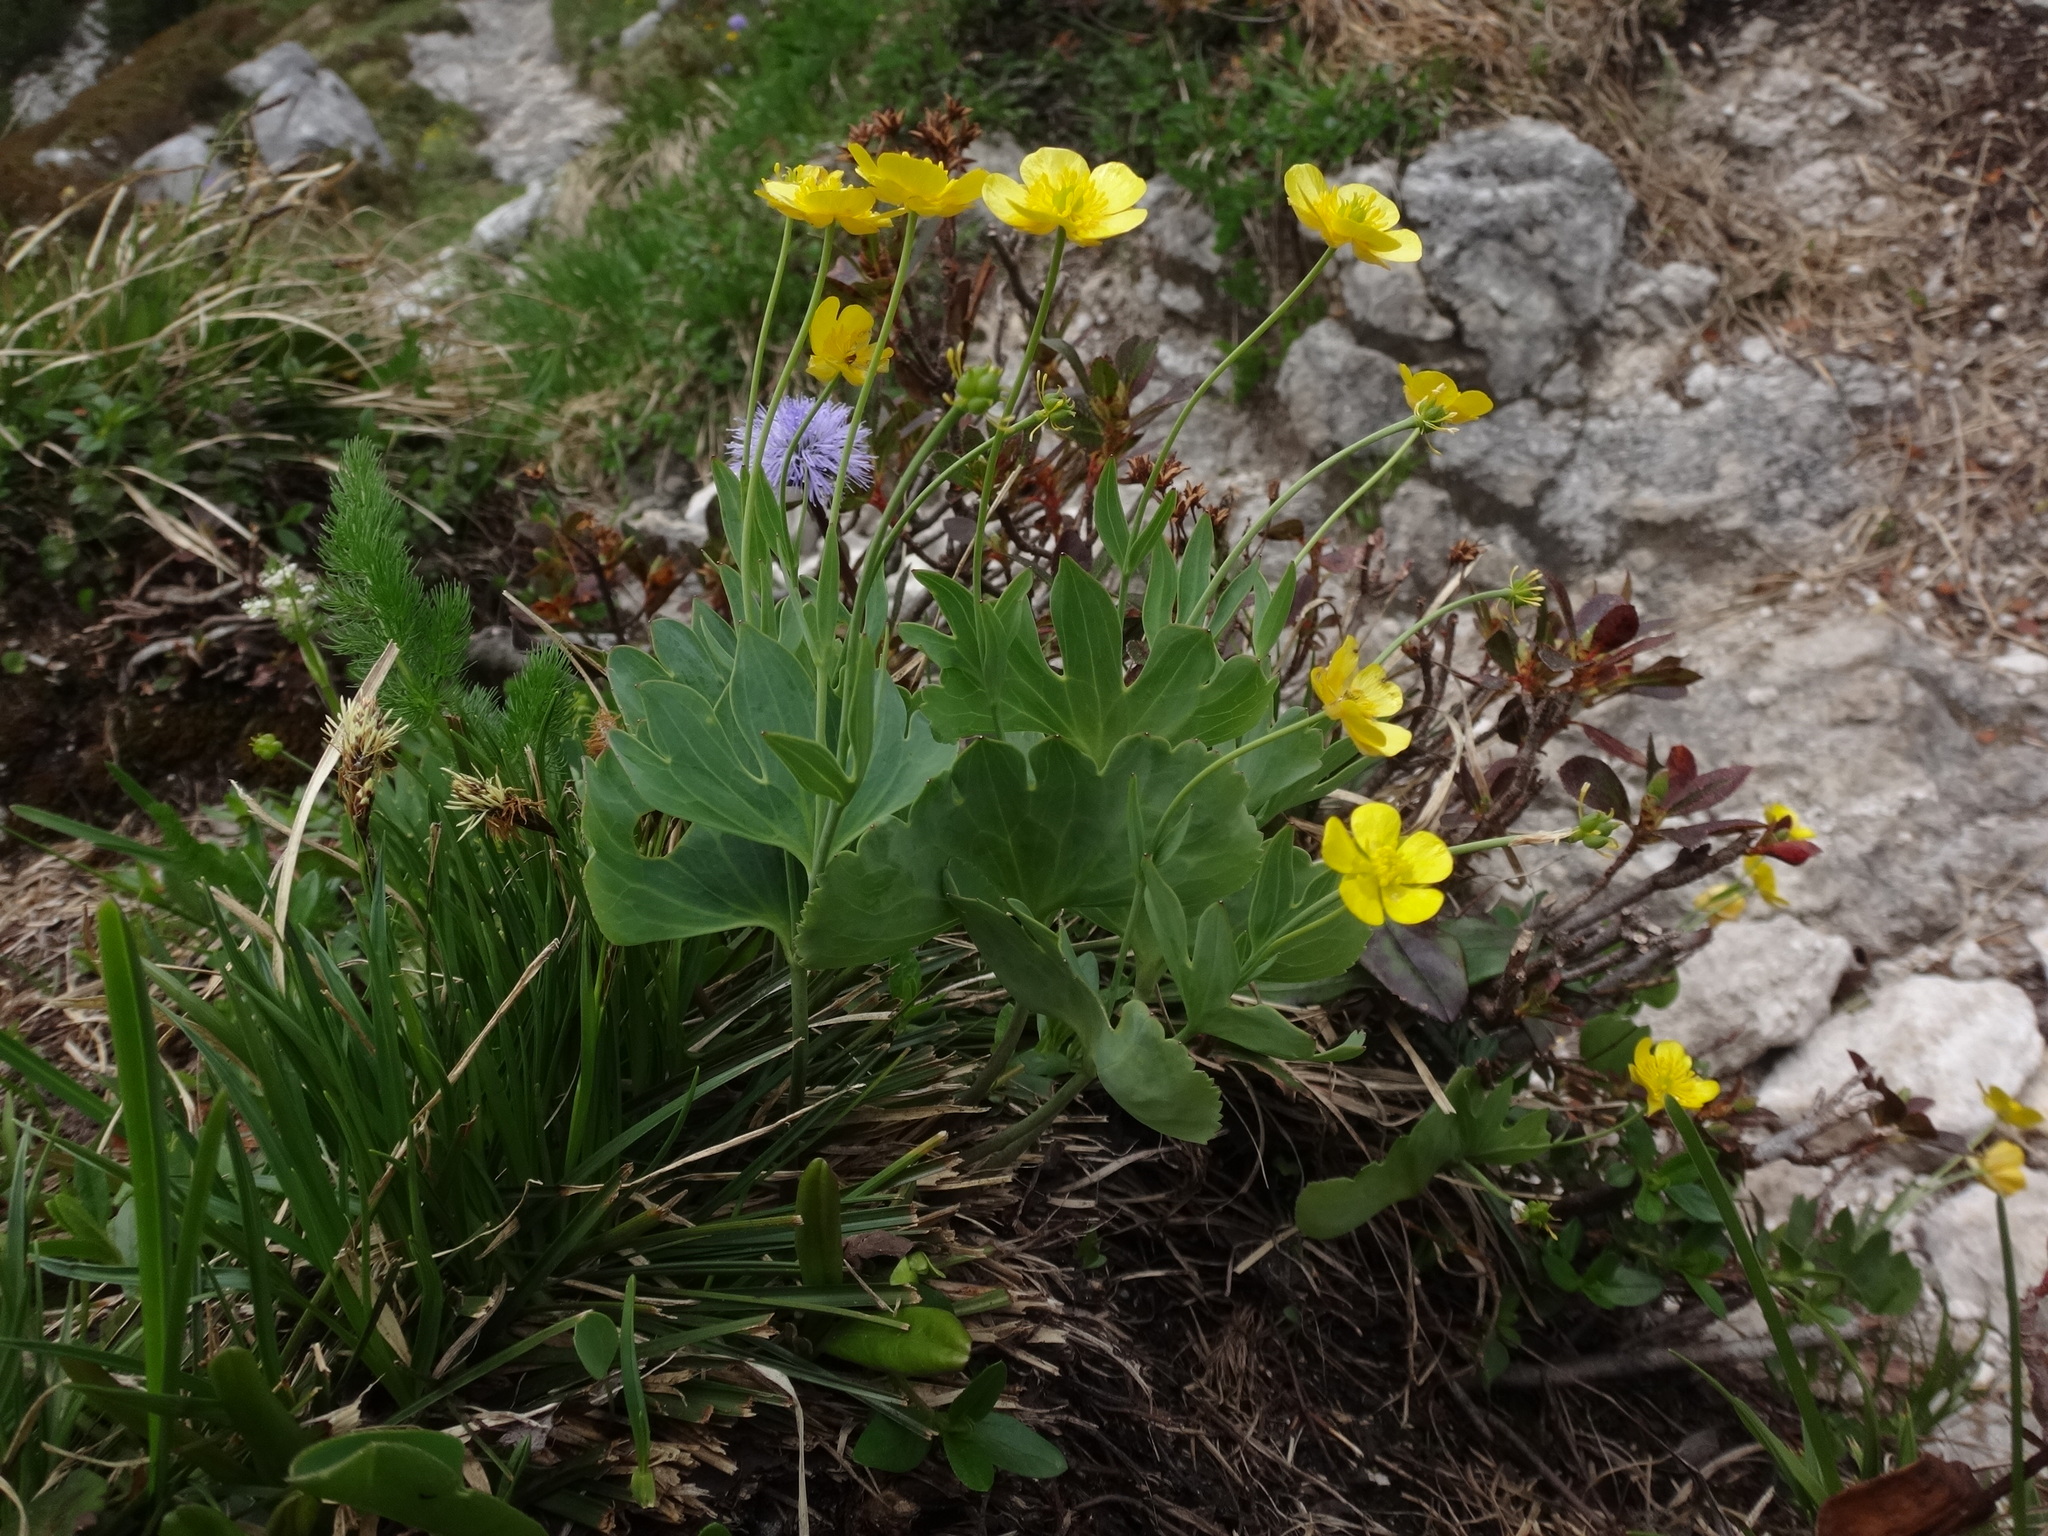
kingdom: Plantae
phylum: Tracheophyta
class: Magnoliopsida
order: Ranunculales
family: Ranunculaceae
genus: Ranunculus
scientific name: Ranunculus hybridus
